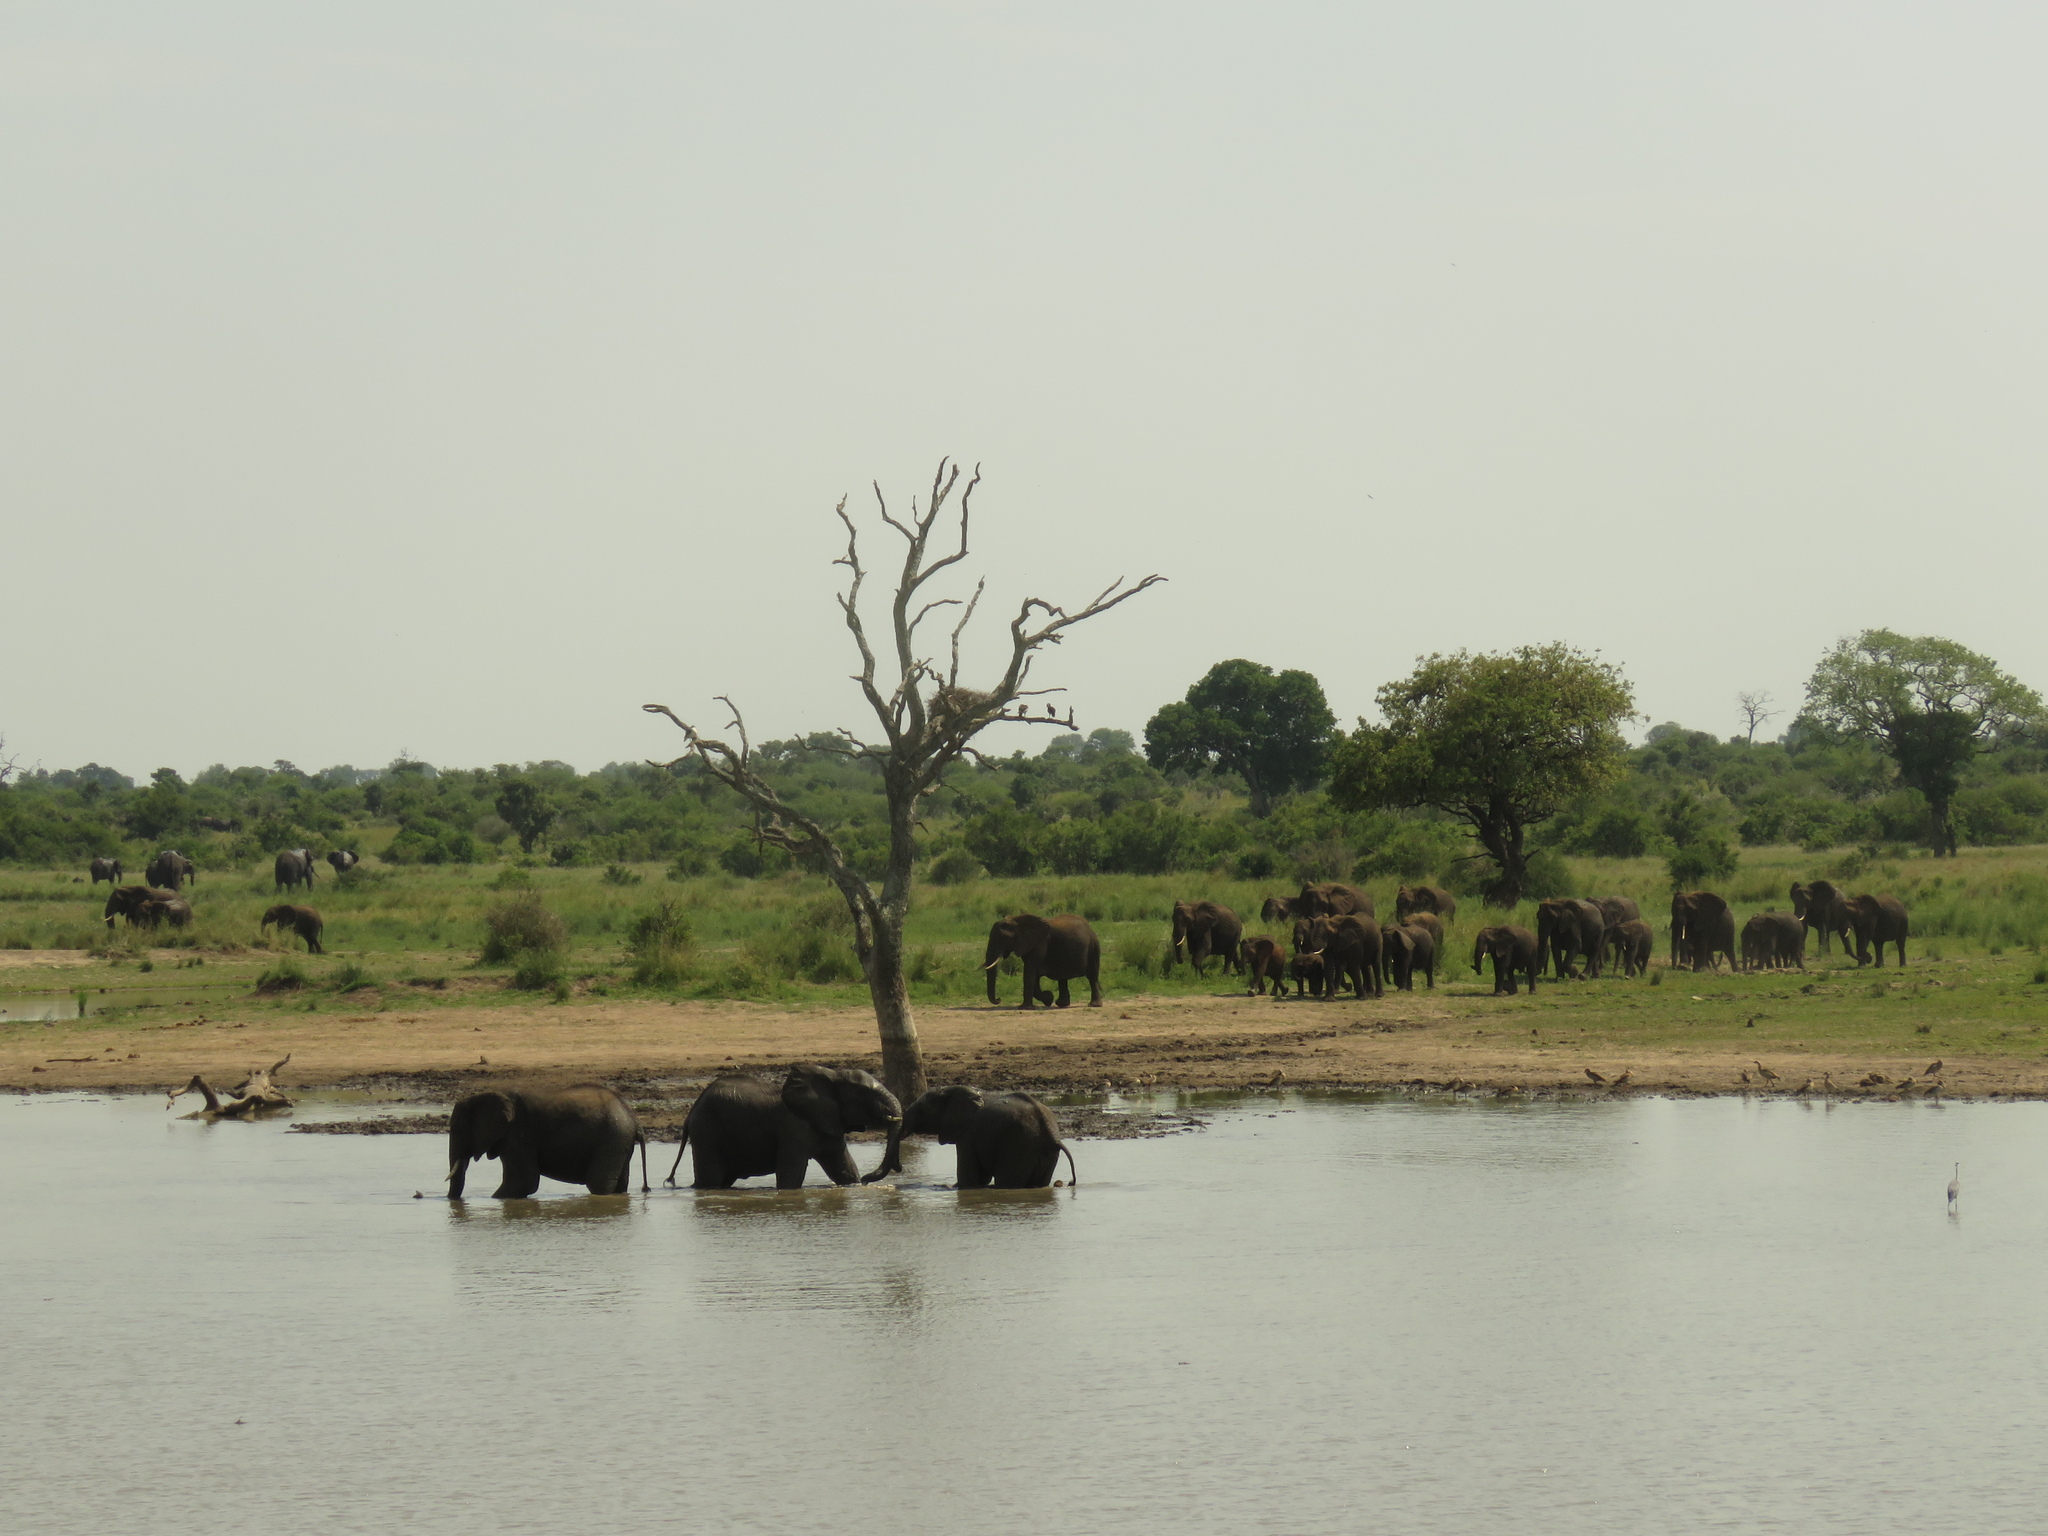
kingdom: Animalia
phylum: Chordata
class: Mammalia
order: Proboscidea
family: Elephantidae
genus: Loxodonta
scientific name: Loxodonta africana
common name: African elephant
